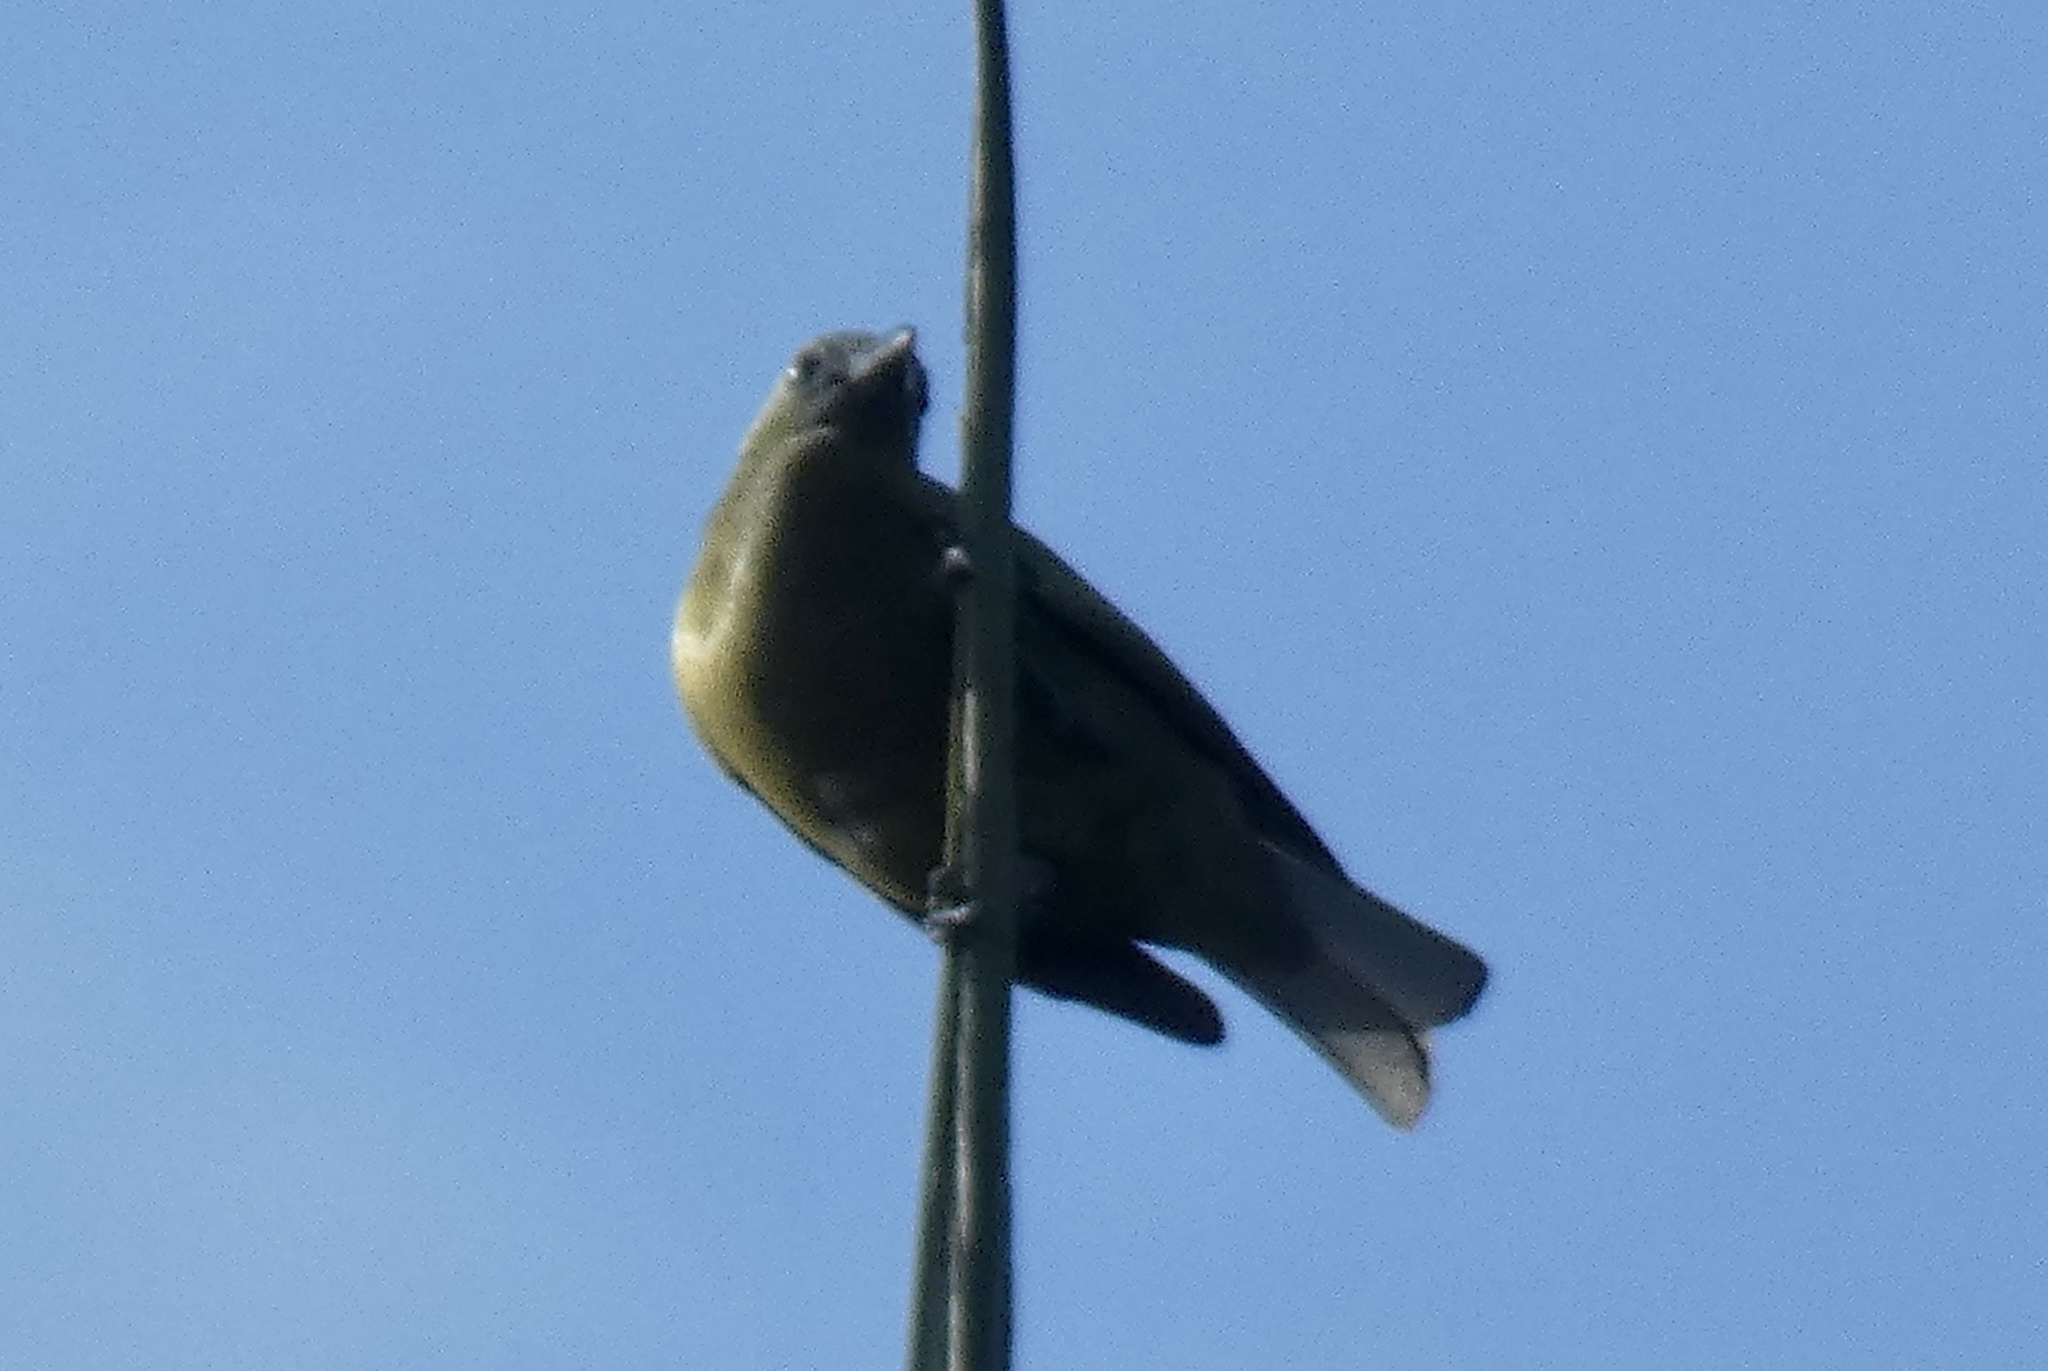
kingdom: Animalia
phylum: Chordata
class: Aves
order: Passeriformes
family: Thraupidae
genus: Thraupis
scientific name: Thraupis palmarum
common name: Palm tanager
